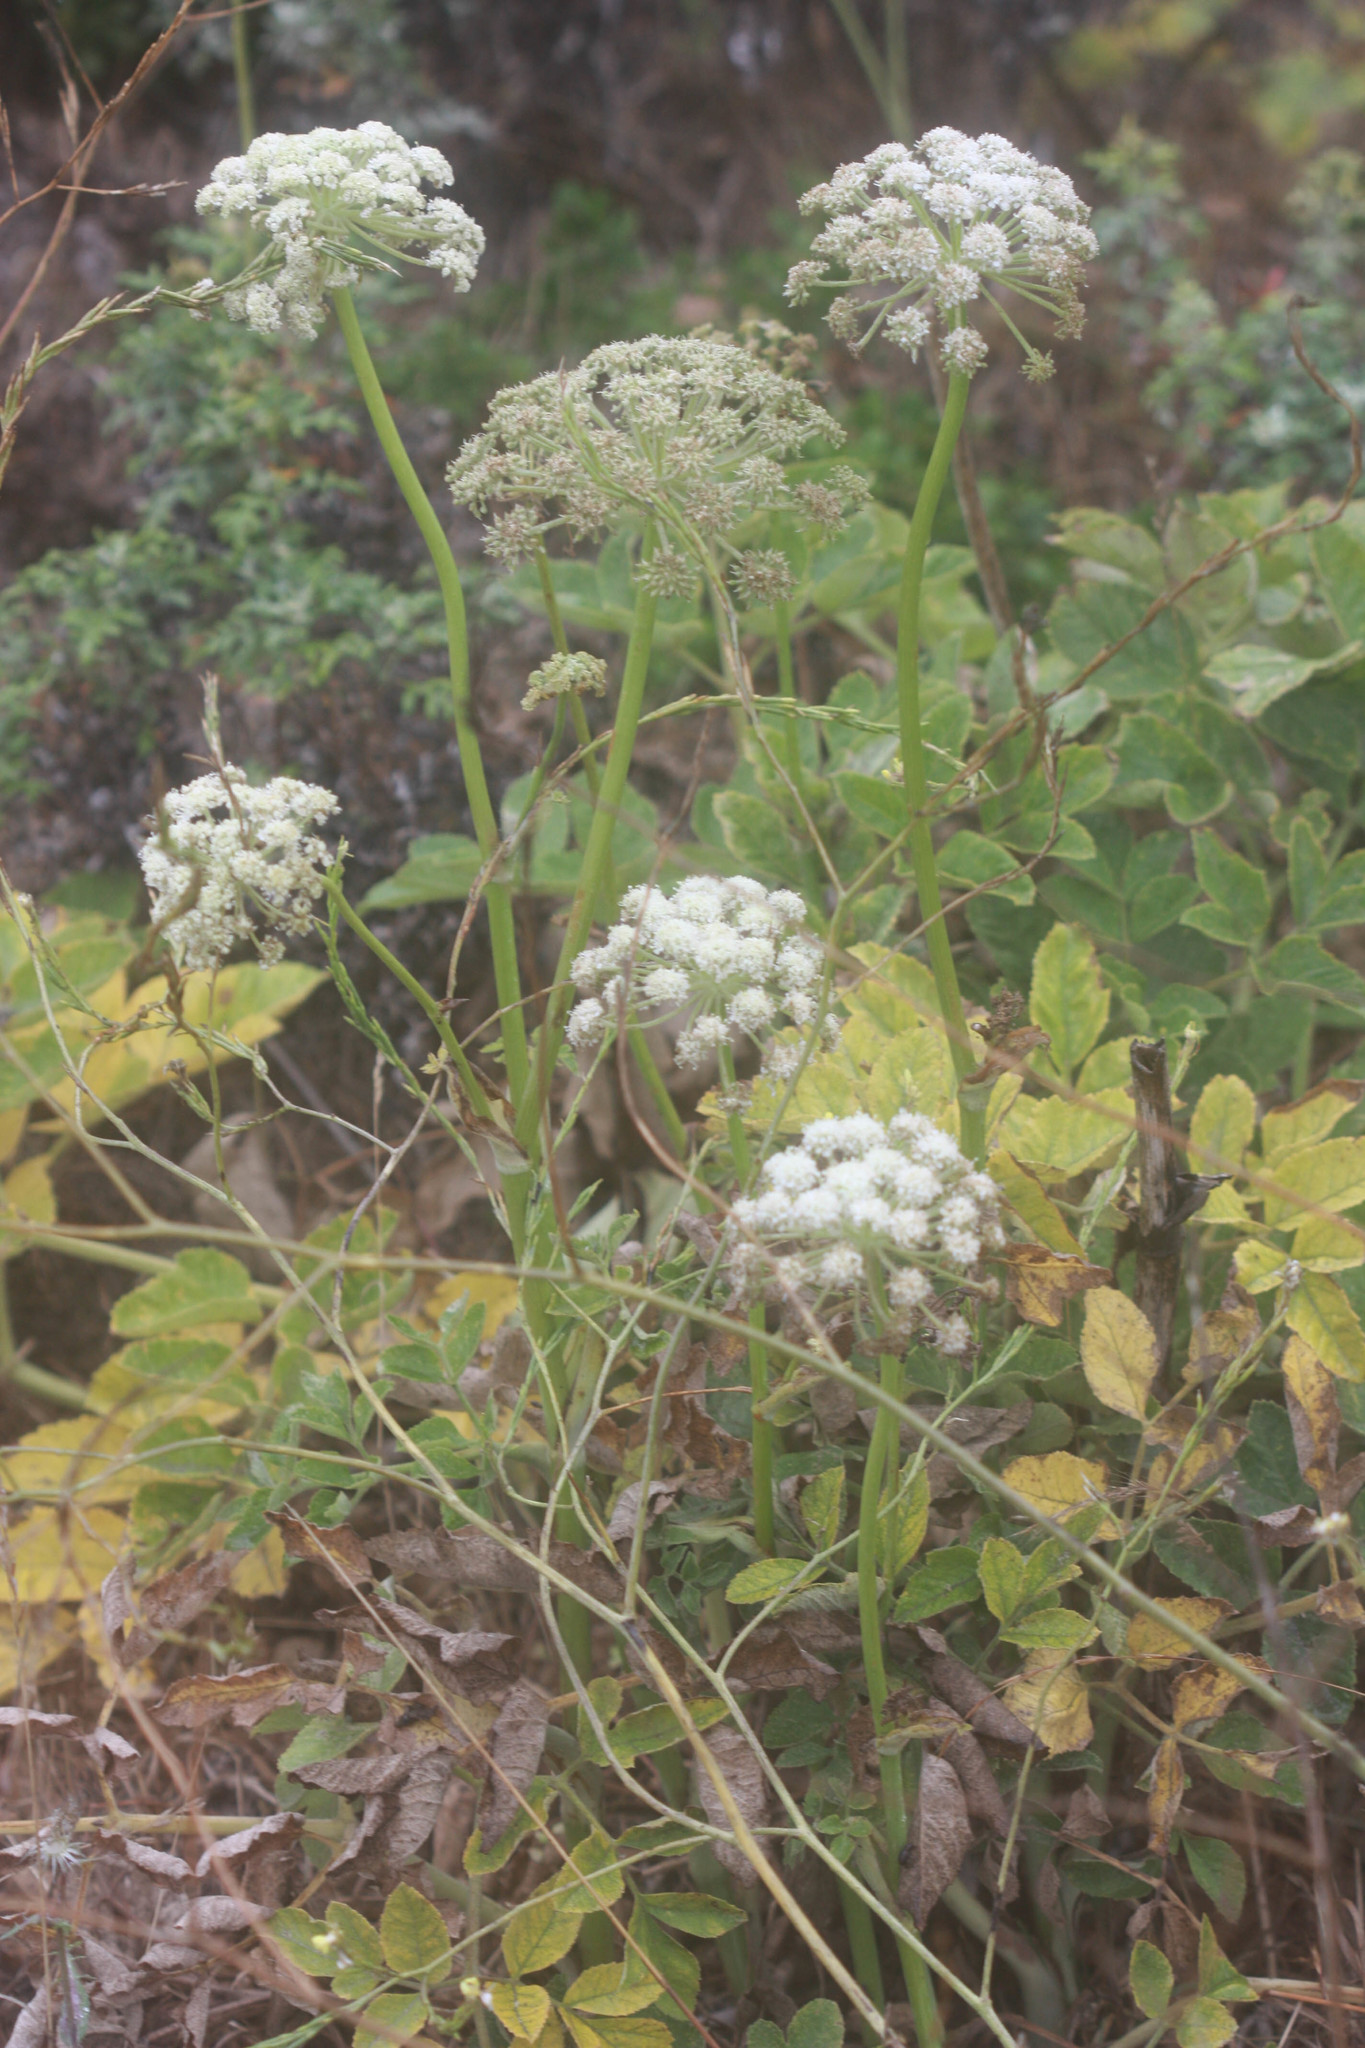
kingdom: Plantae
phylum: Tracheophyta
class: Magnoliopsida
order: Apiales
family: Apiaceae
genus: Angelica
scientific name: Angelica hendersonii
